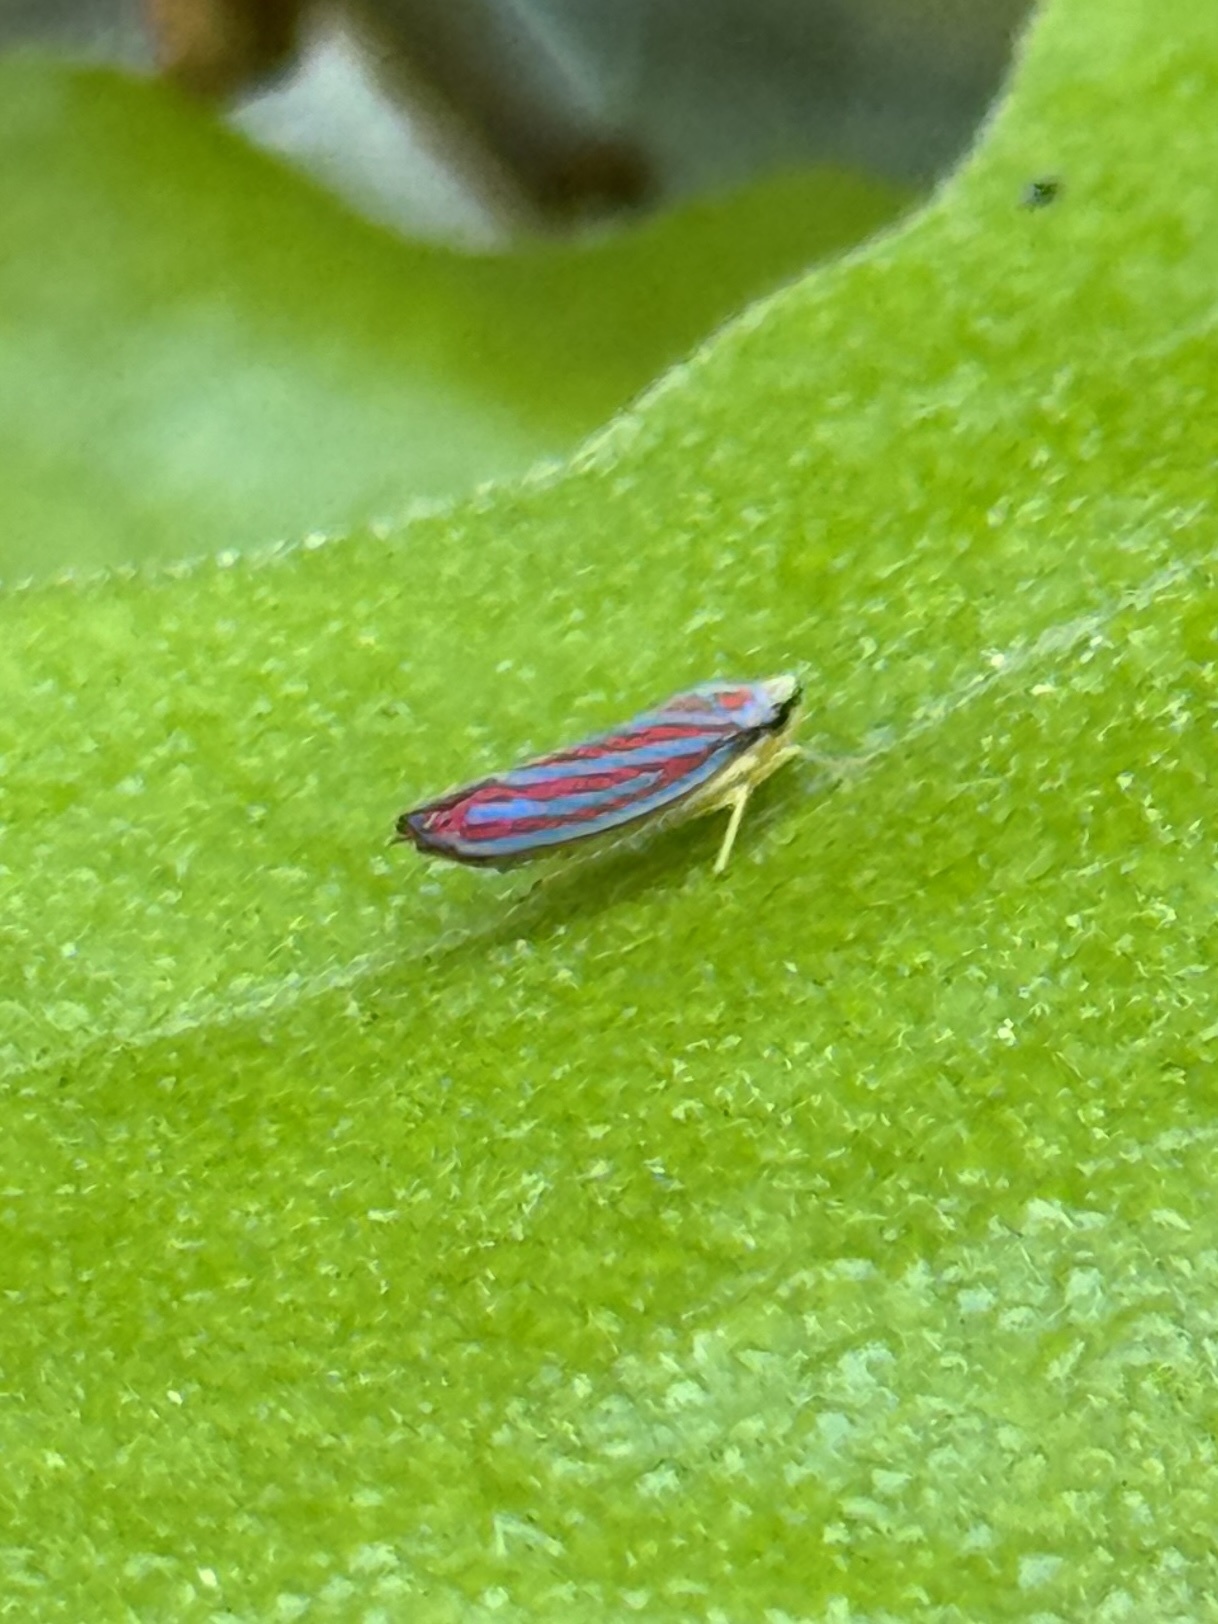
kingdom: Animalia
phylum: Arthropoda
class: Insecta
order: Hemiptera
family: Cicadellidae
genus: Graphocephala
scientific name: Graphocephala coccinea
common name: Candy-striped leafhopper
